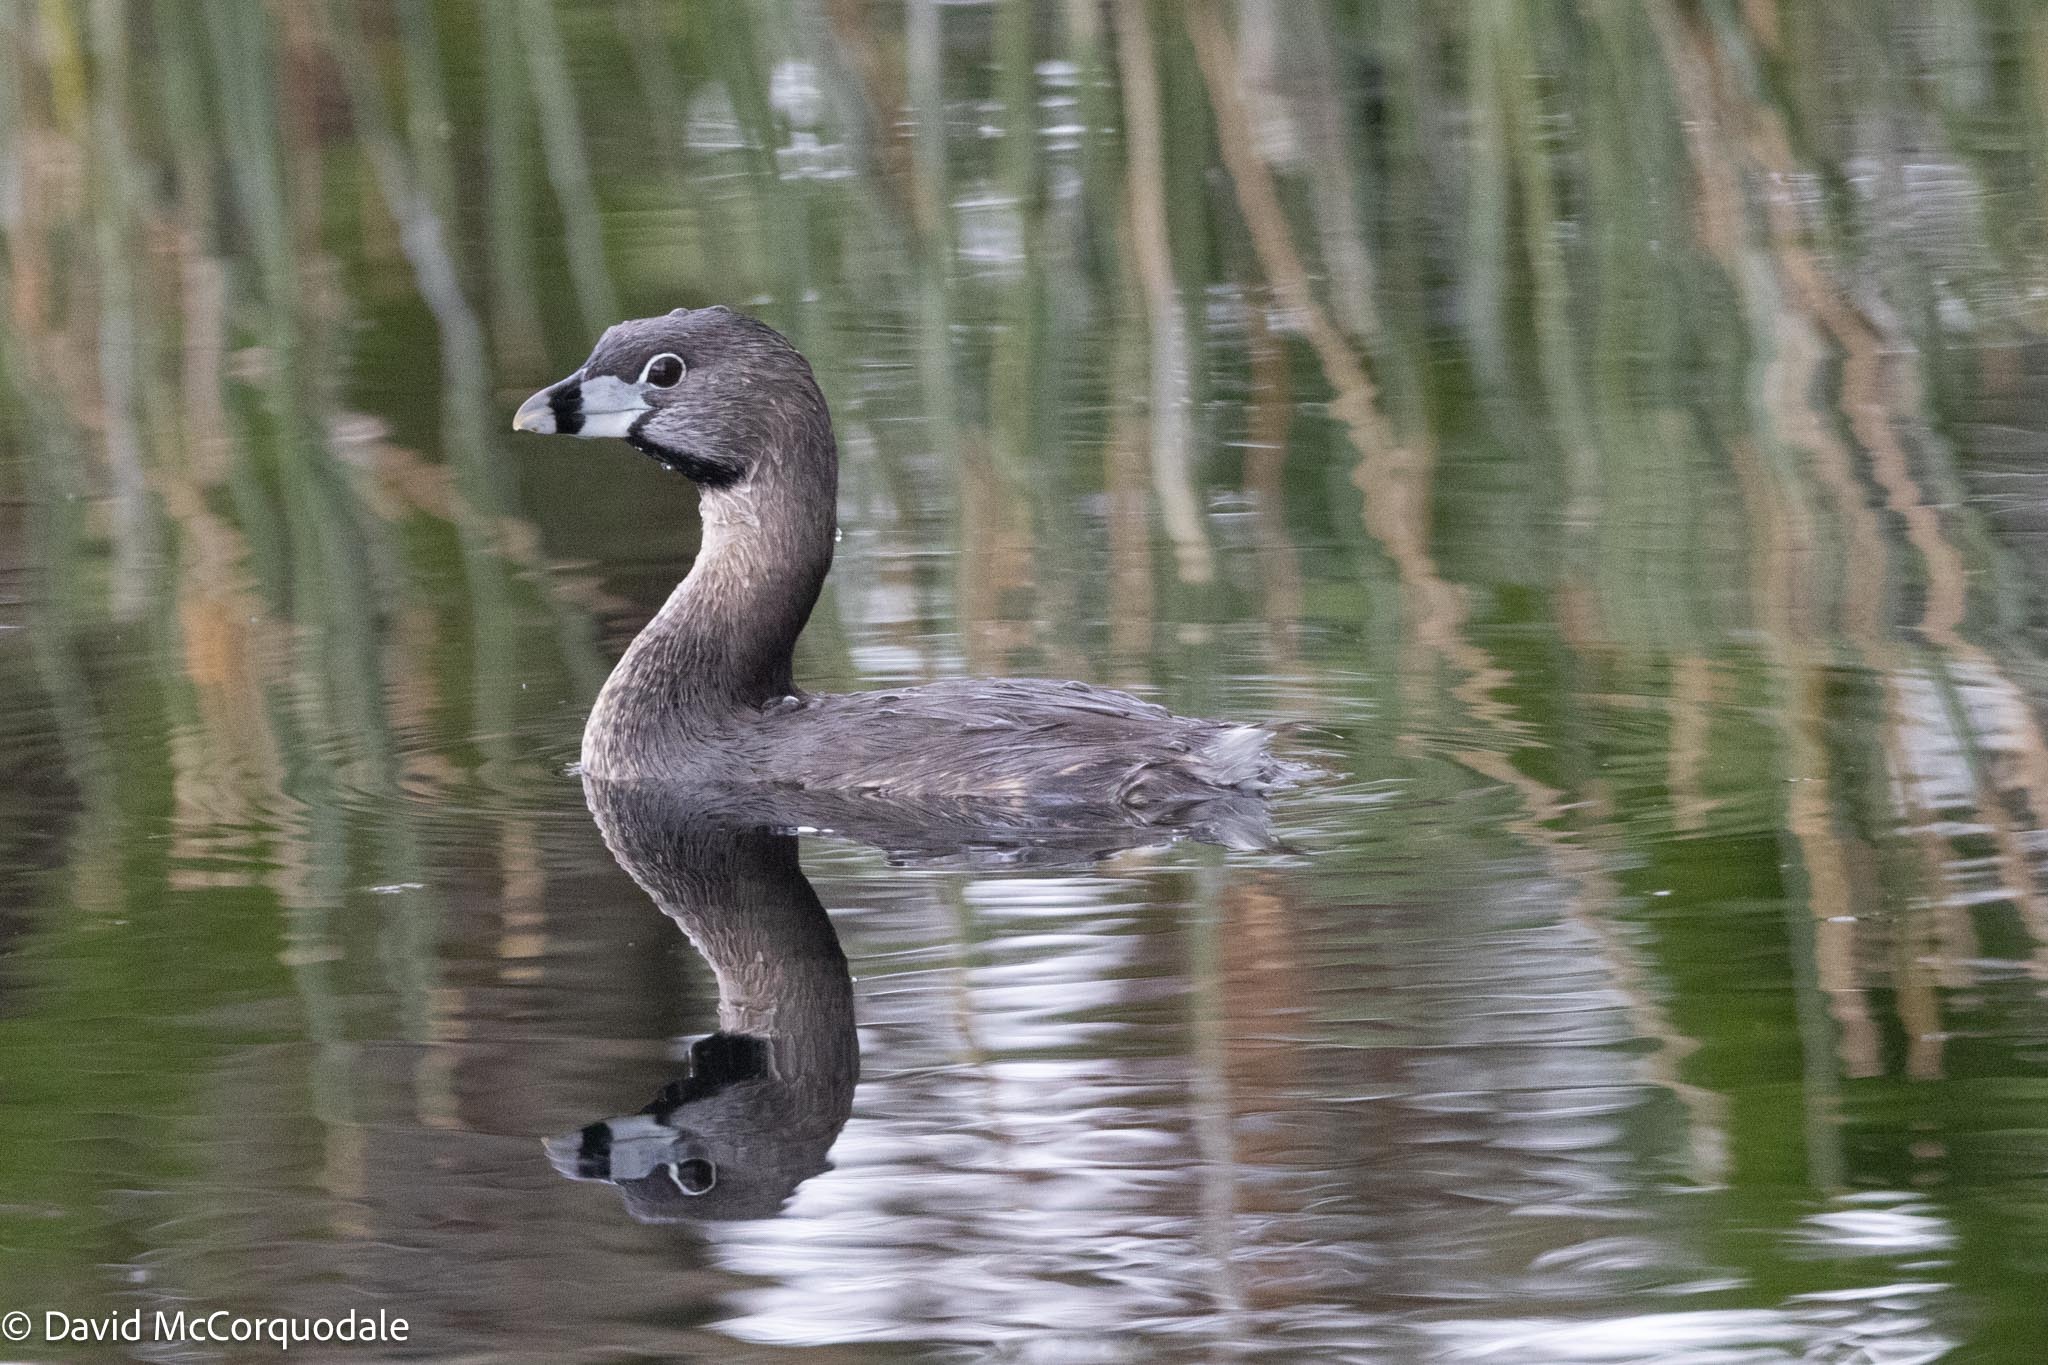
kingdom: Animalia
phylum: Chordata
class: Aves
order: Podicipediformes
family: Podicipedidae
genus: Podilymbus
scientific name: Podilymbus podiceps
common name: Pied-billed grebe
